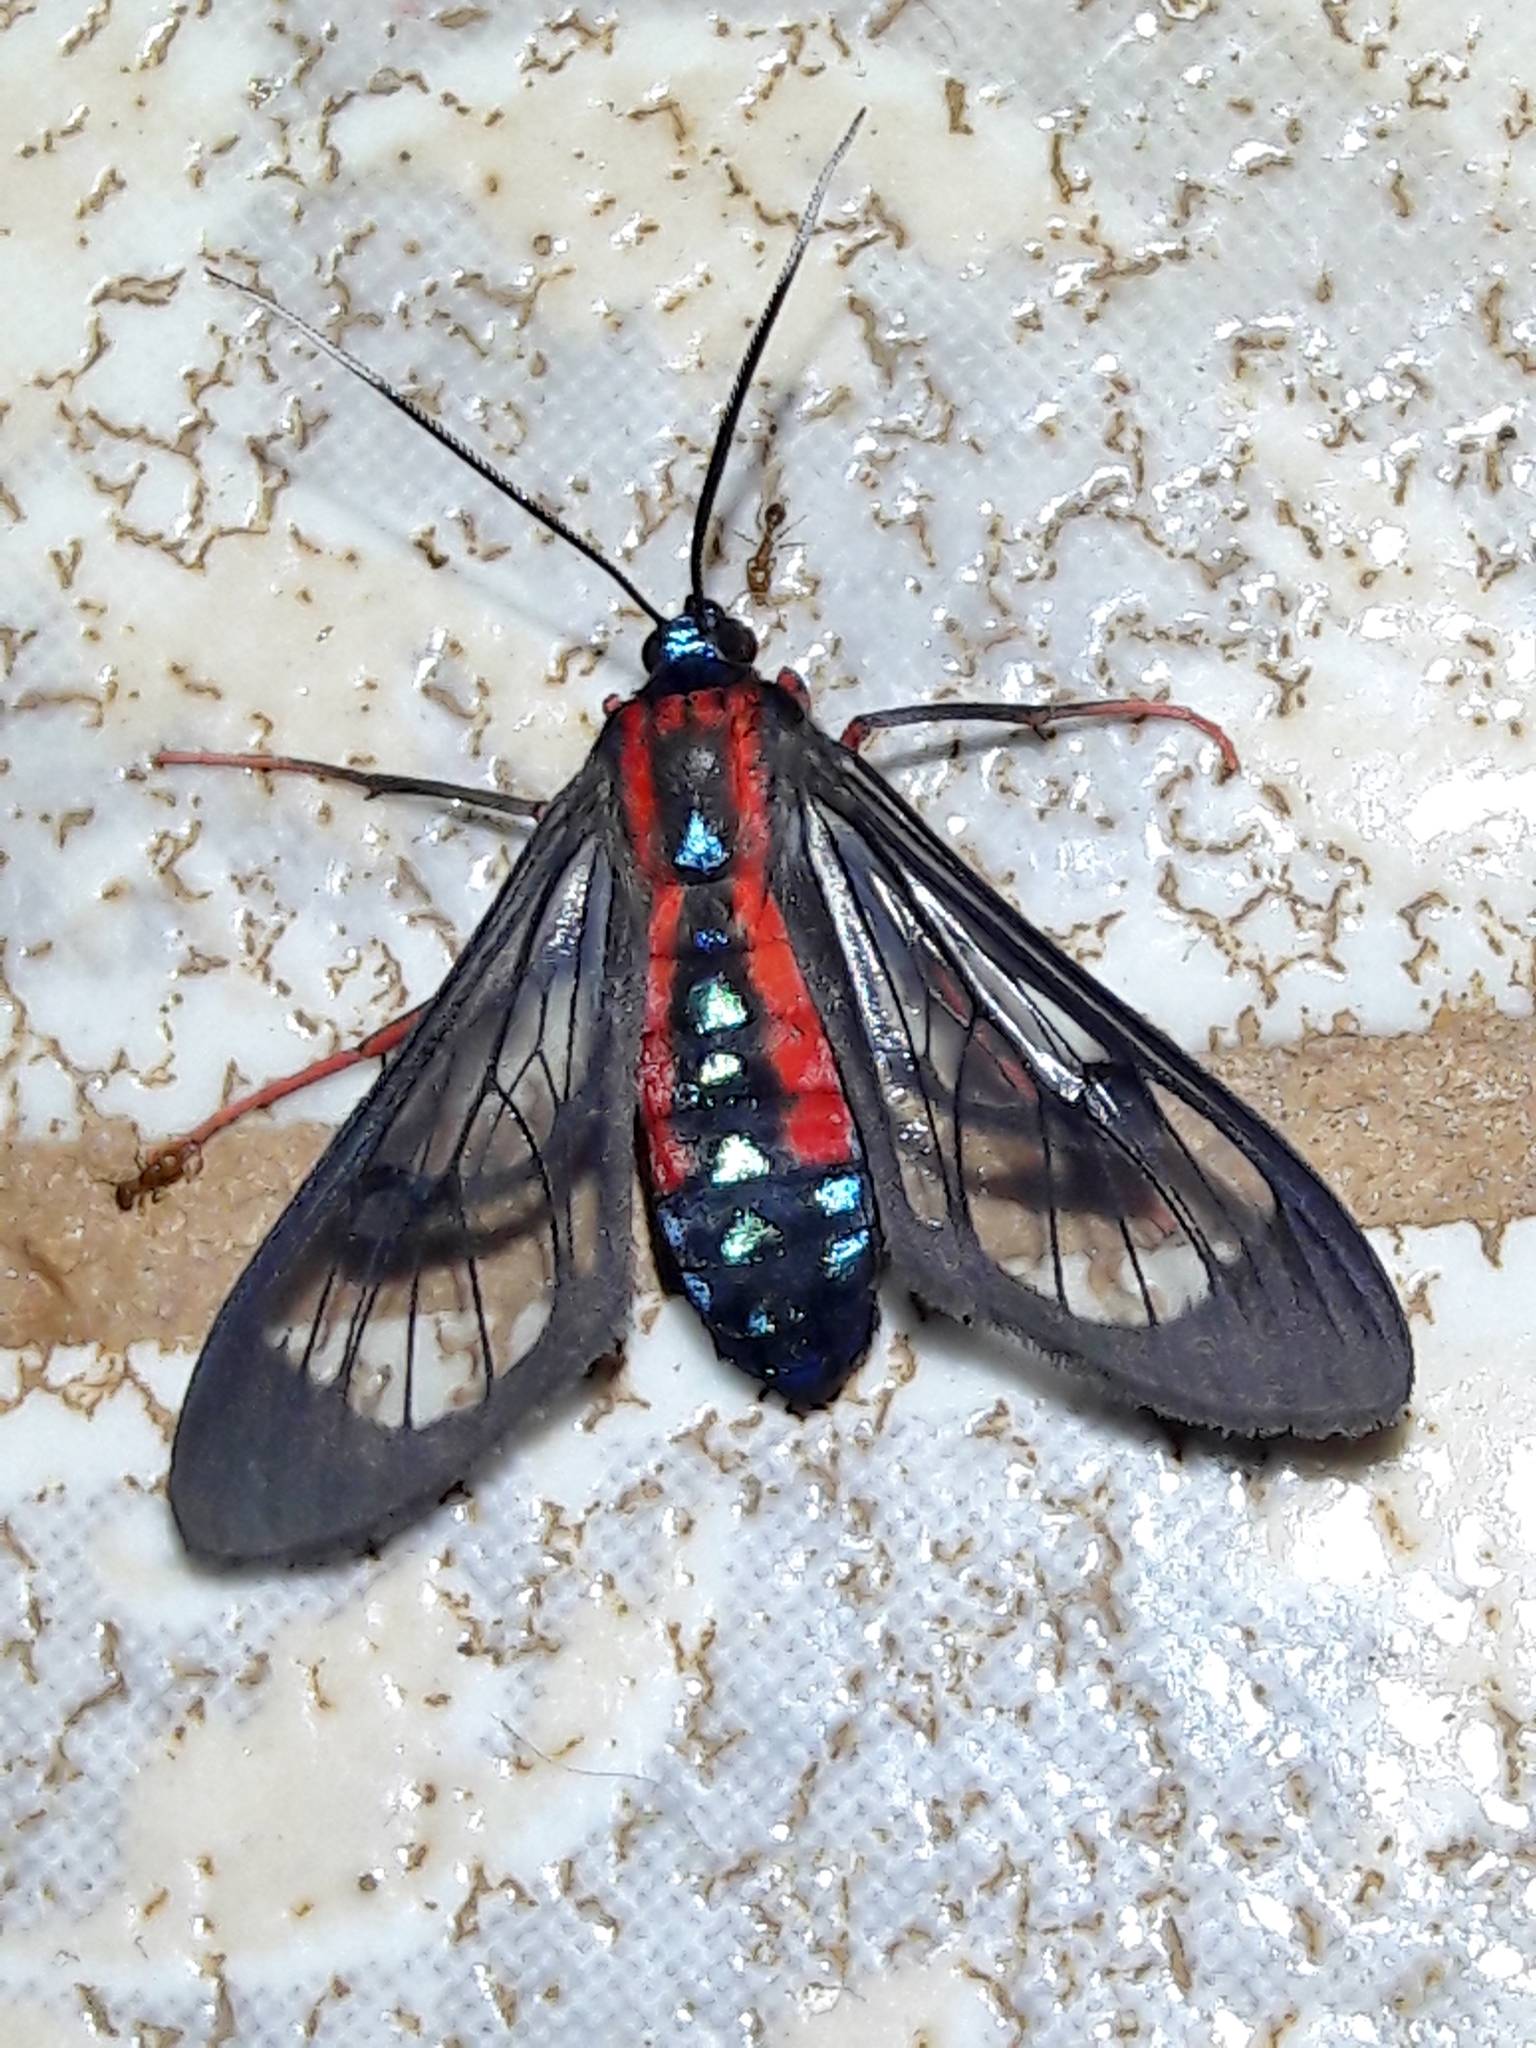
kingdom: Animalia
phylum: Arthropoda
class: Insecta
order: Lepidoptera
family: Erebidae
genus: Cosmosoma
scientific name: Cosmosoma auge
